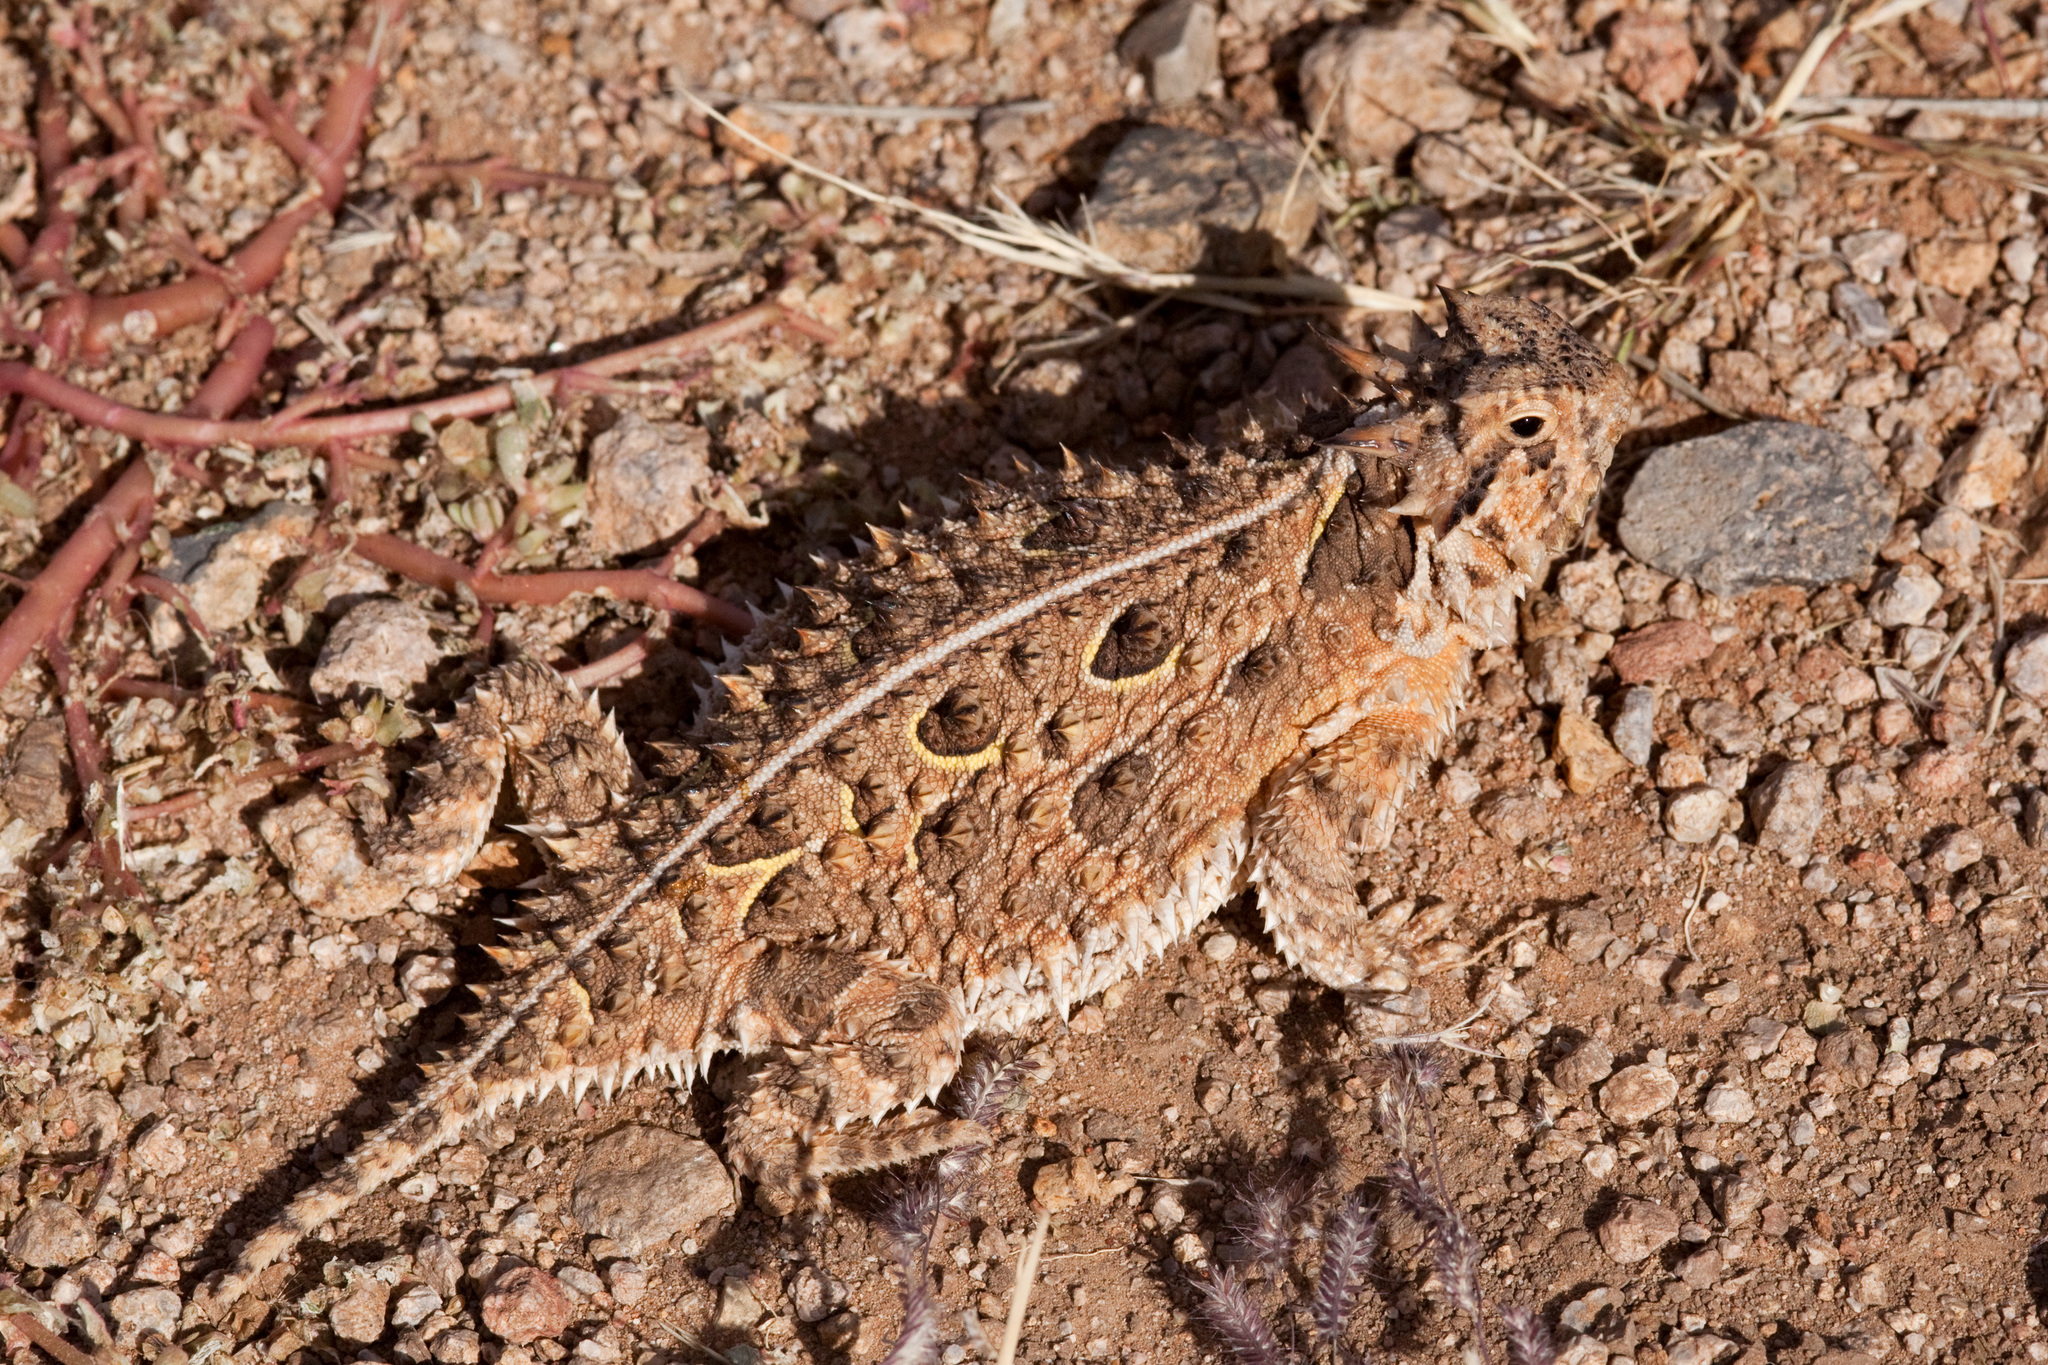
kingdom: Animalia
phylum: Chordata
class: Squamata
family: Phrynosomatidae
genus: Phrynosoma
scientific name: Phrynosoma cornutum
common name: Texas horned lizard
